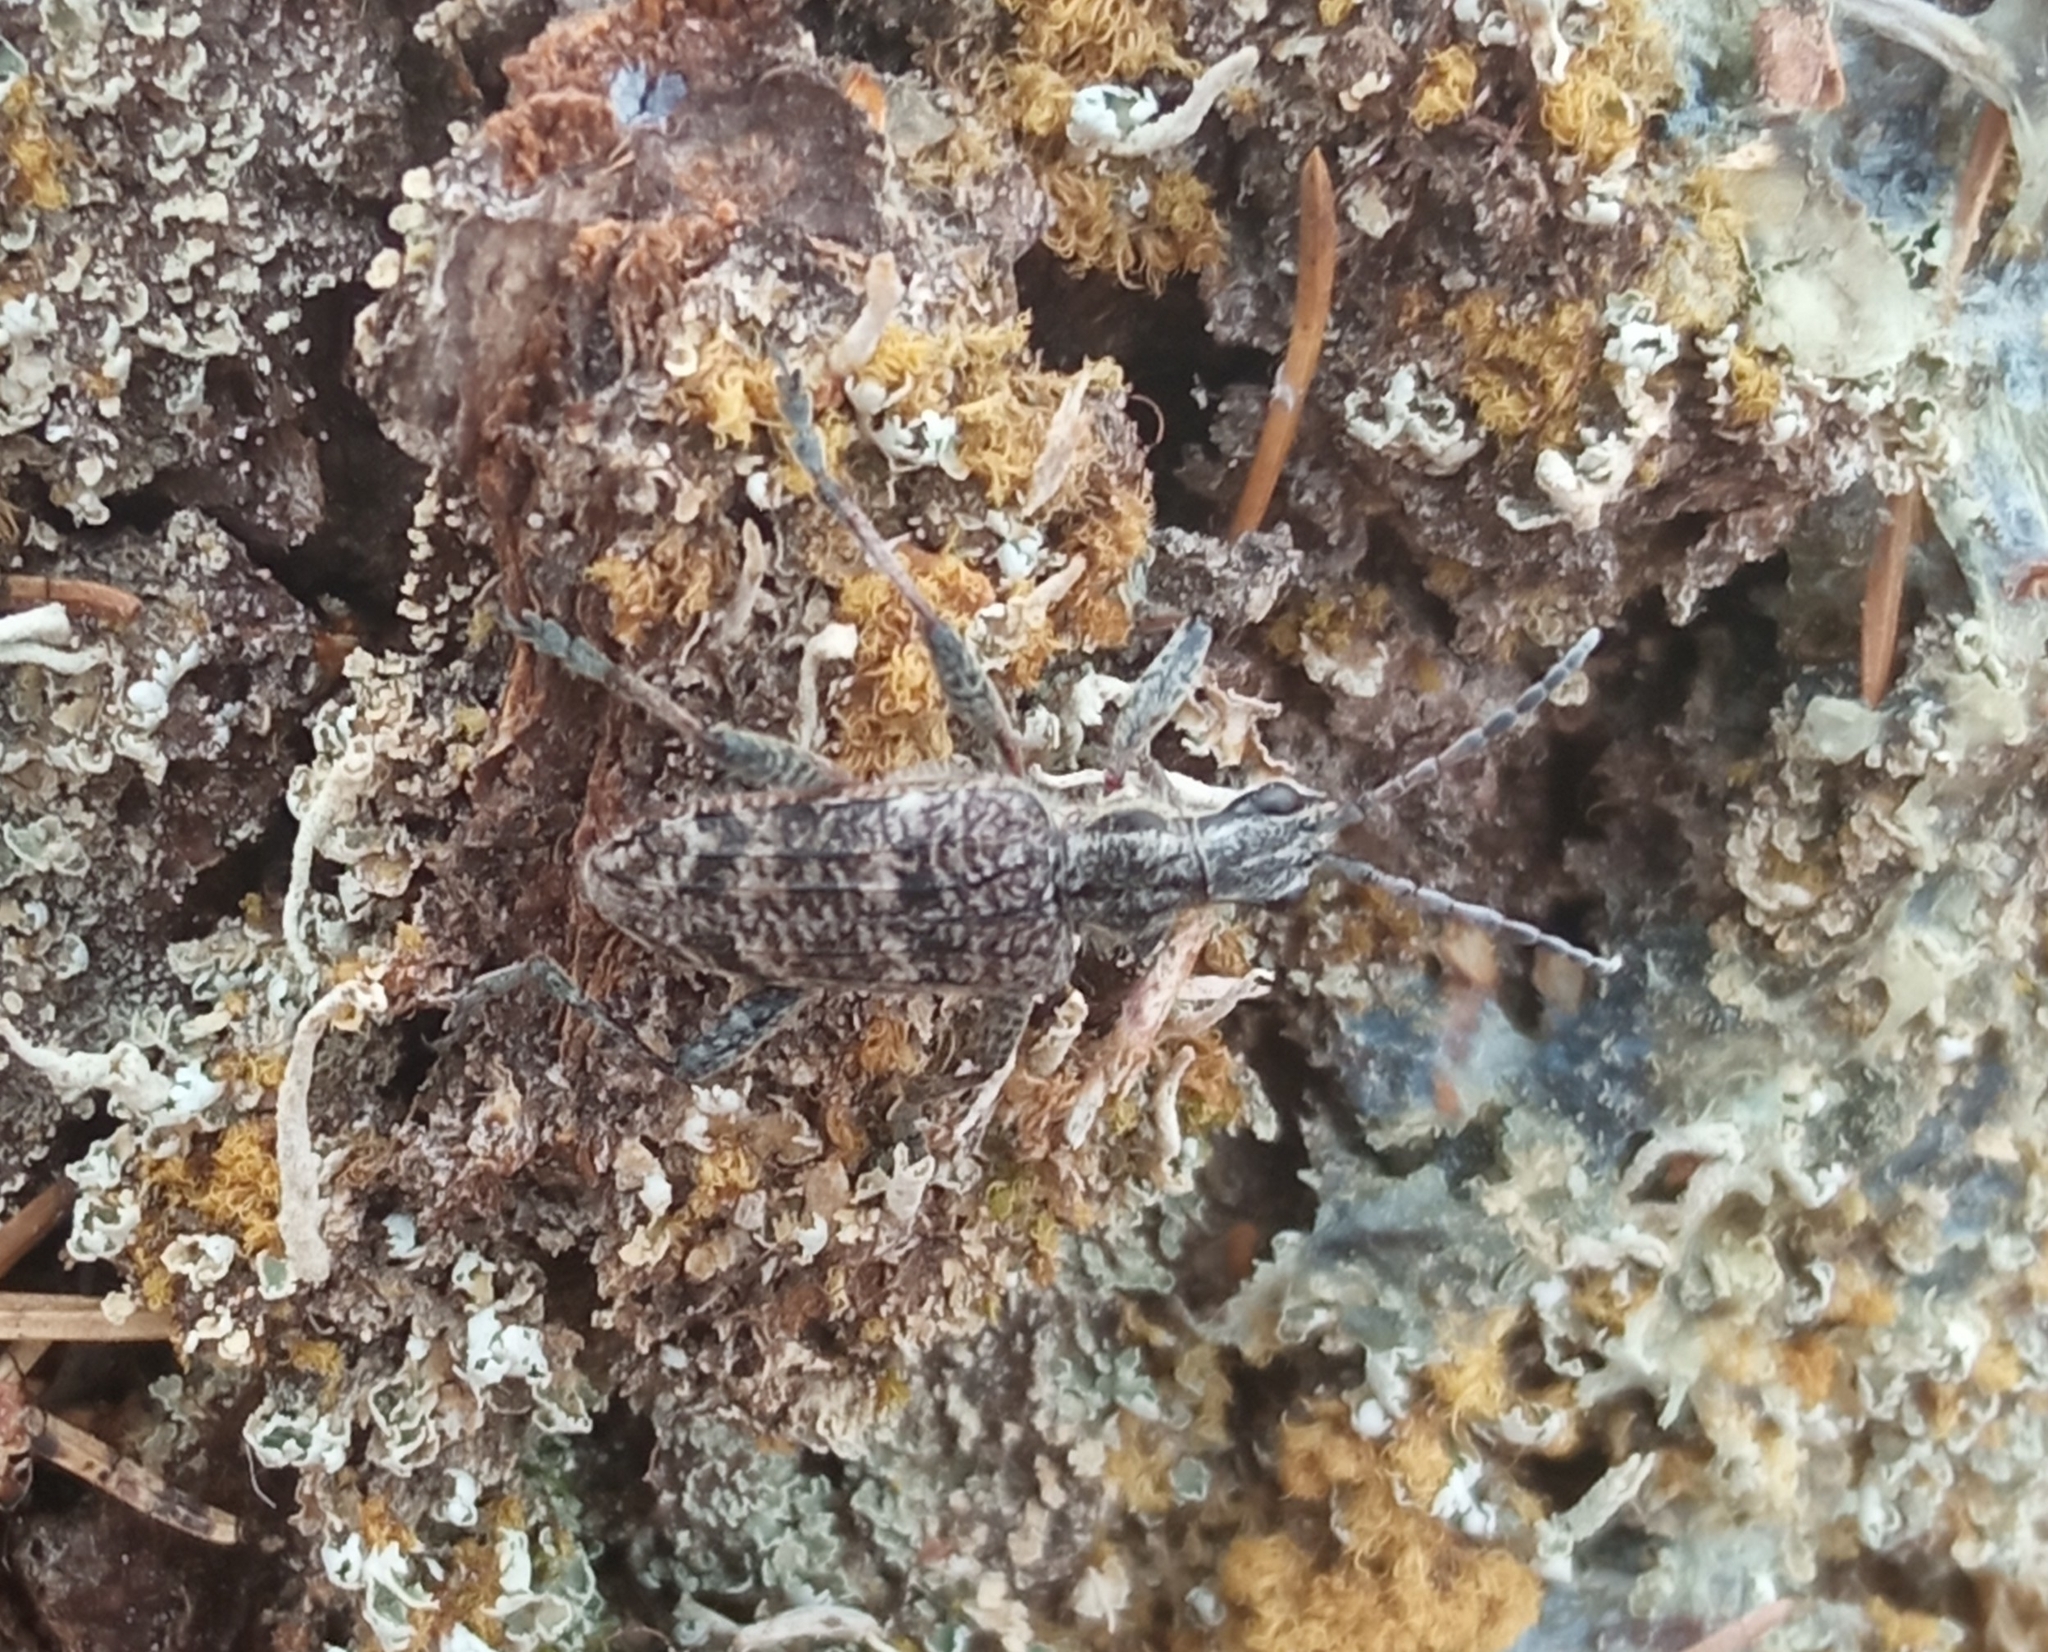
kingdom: Animalia
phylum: Arthropoda
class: Insecta
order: Coleoptera
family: Cerambycidae
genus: Rhagium
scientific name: Rhagium inquisitor
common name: Ribbed pine borer
